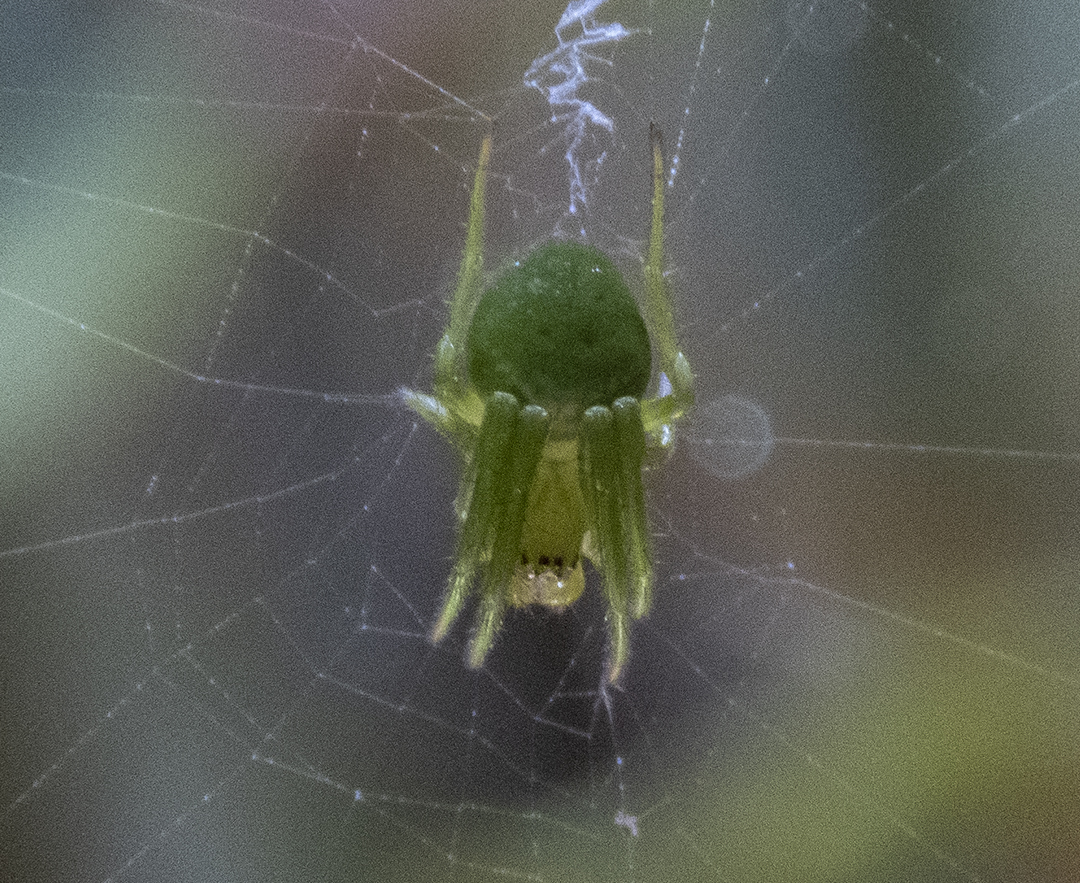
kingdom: Animalia
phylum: Arthropoda
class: Arachnida
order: Araneae
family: Araneidae
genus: Colaranea
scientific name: Colaranea viriditas
